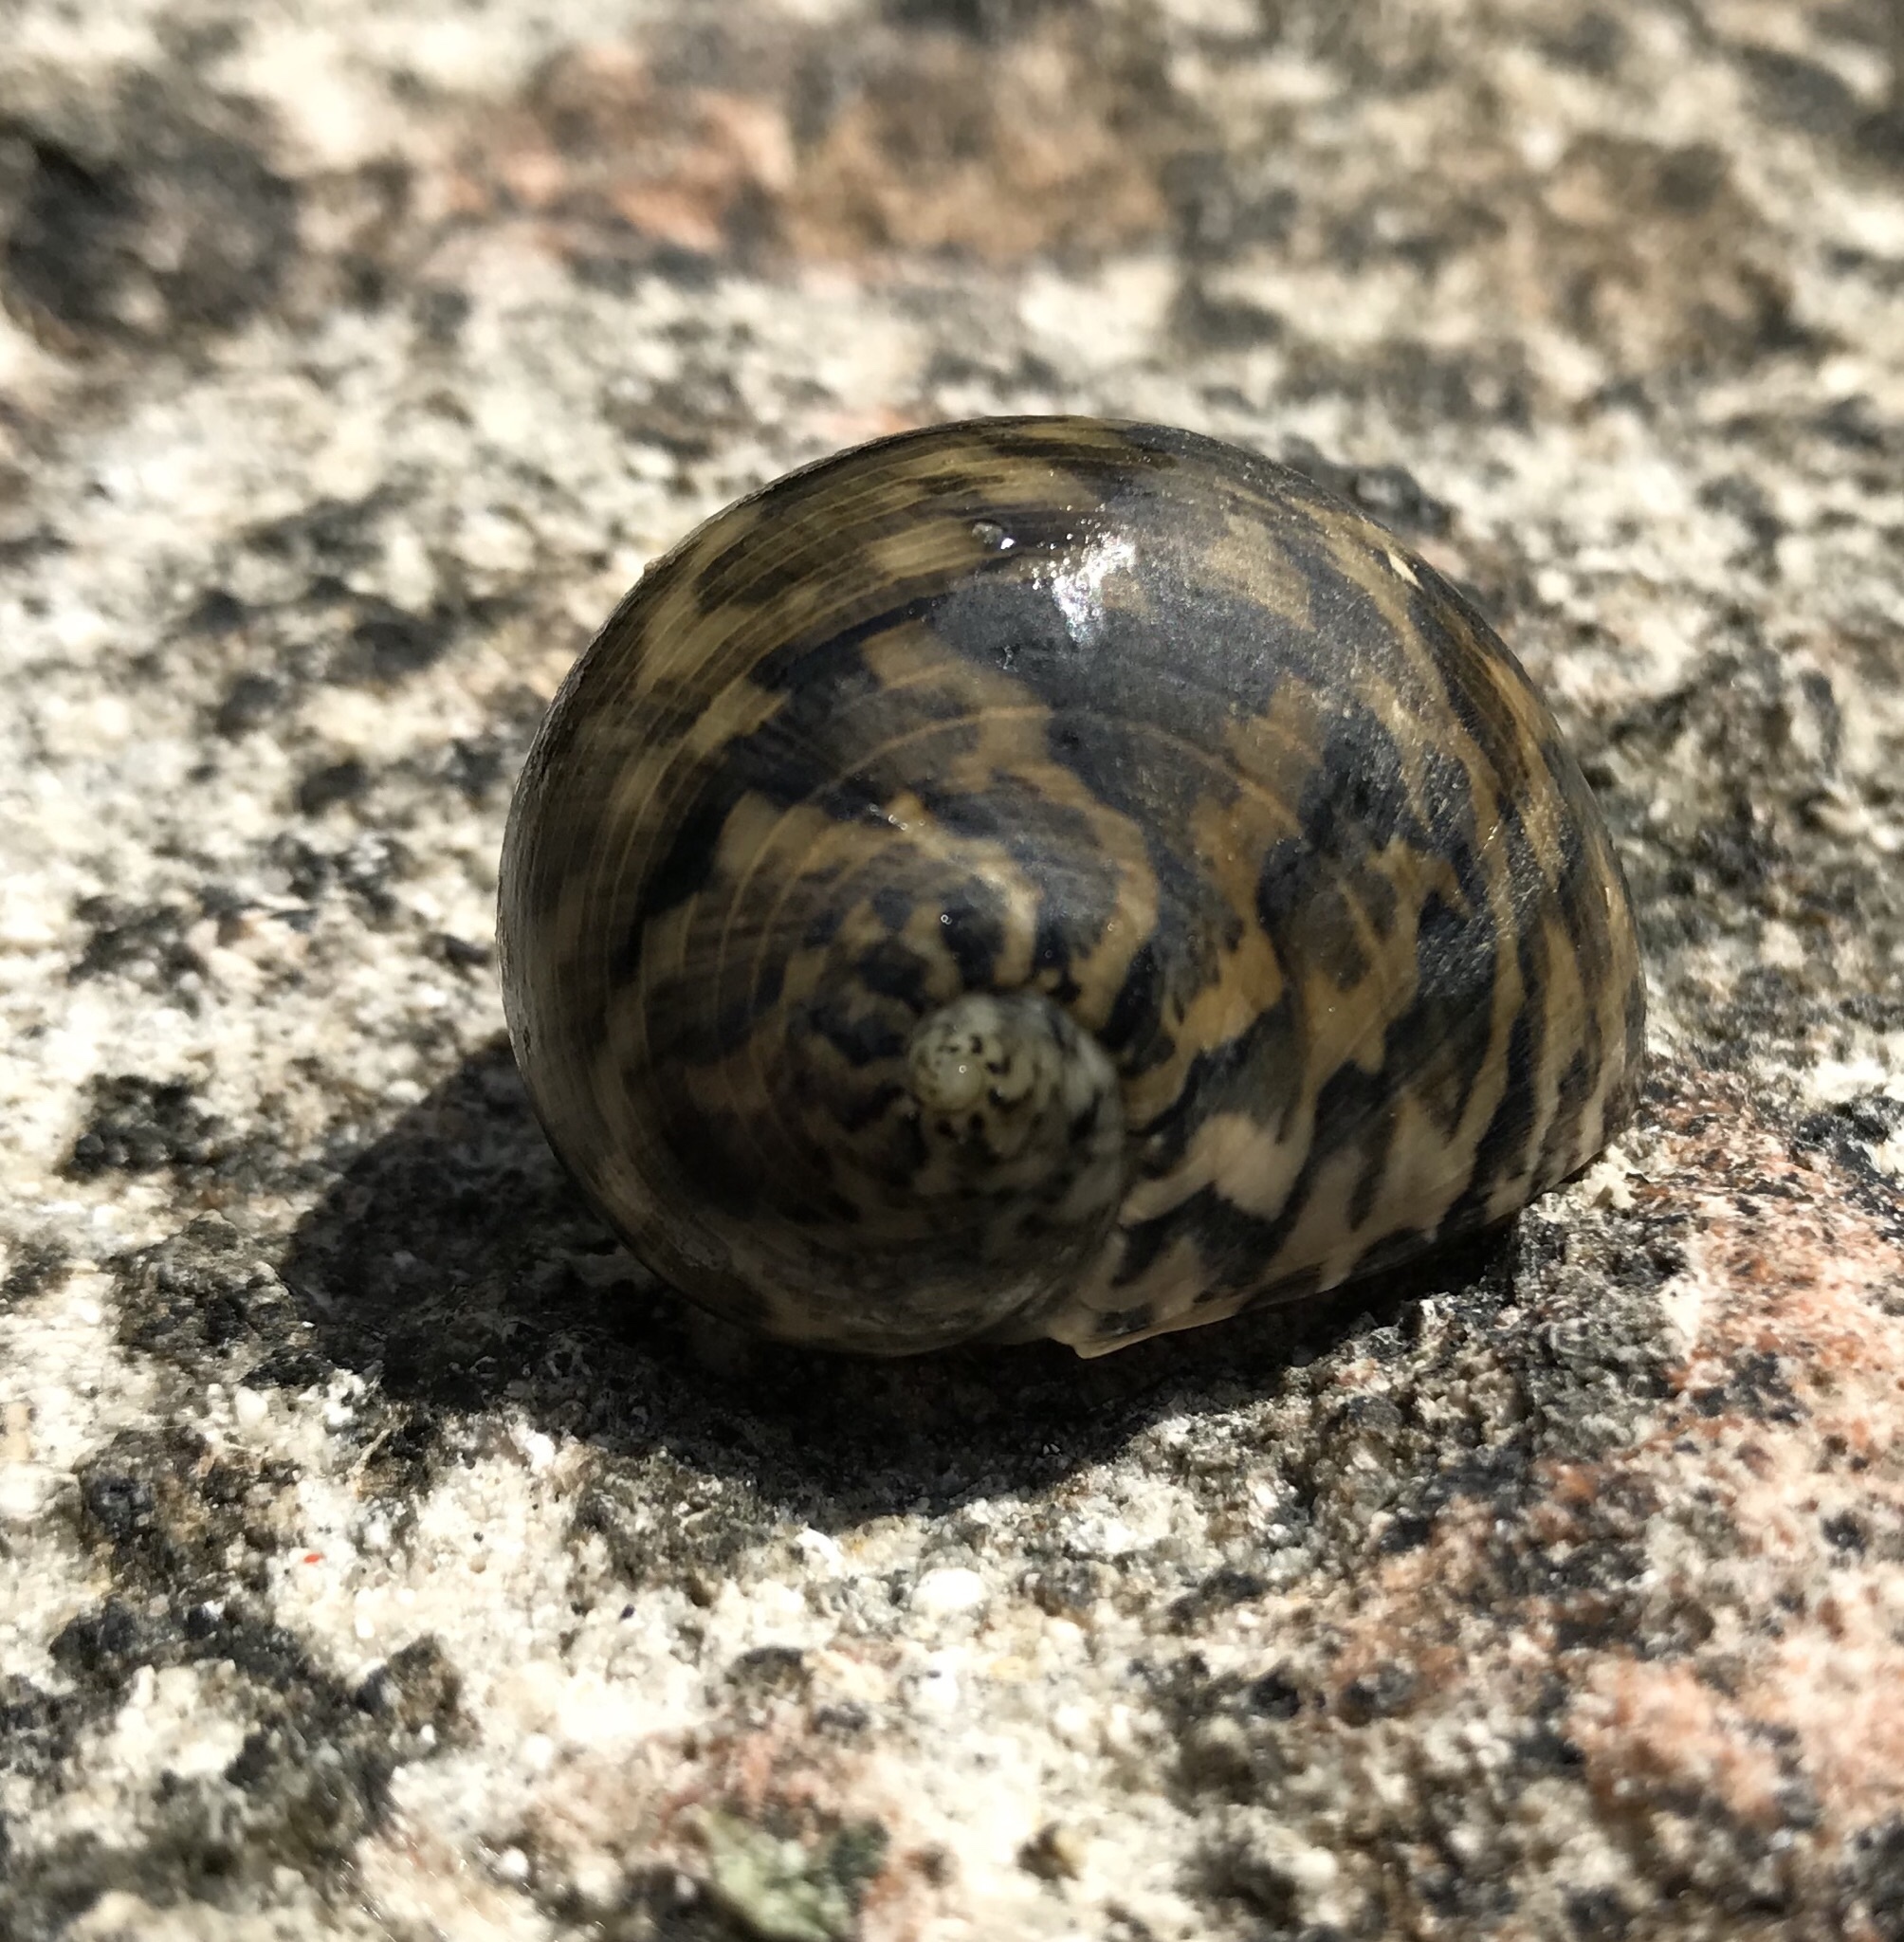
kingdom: Animalia
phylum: Mollusca
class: Gastropoda
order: Cycloneritida
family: Neritidae
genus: Nerita
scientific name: Nerita maxima
